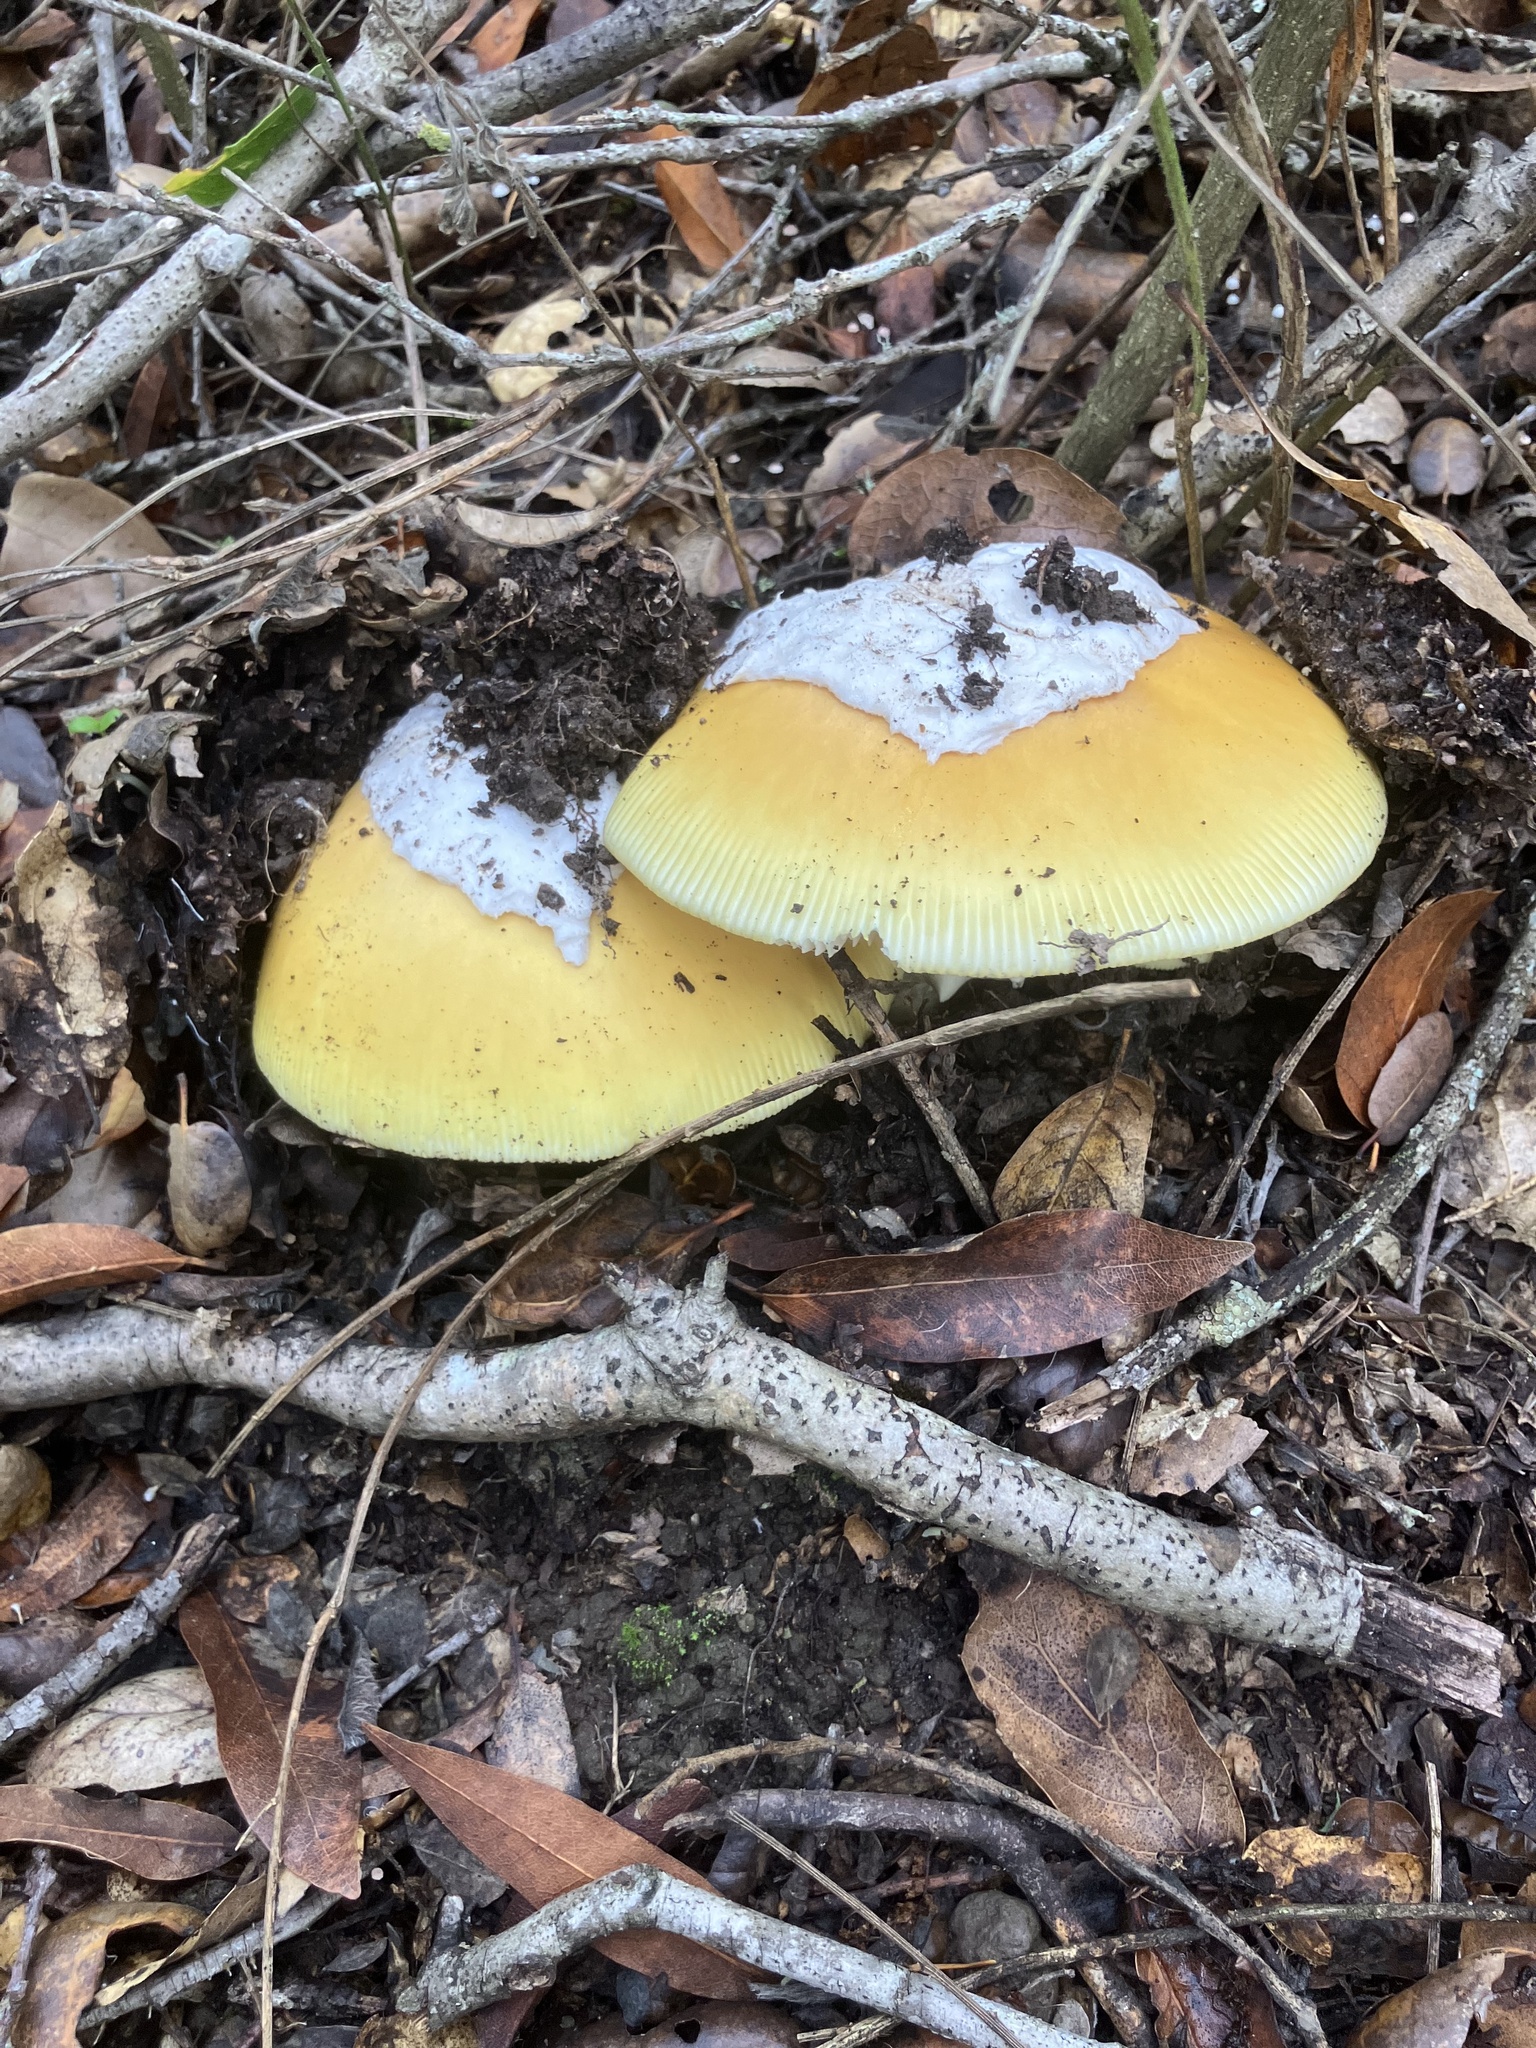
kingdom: Fungi
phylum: Basidiomycota
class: Agaricomycetes
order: Agaricales
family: Amanitaceae
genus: Amanita
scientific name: Amanita calyptroderma
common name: Coccora
